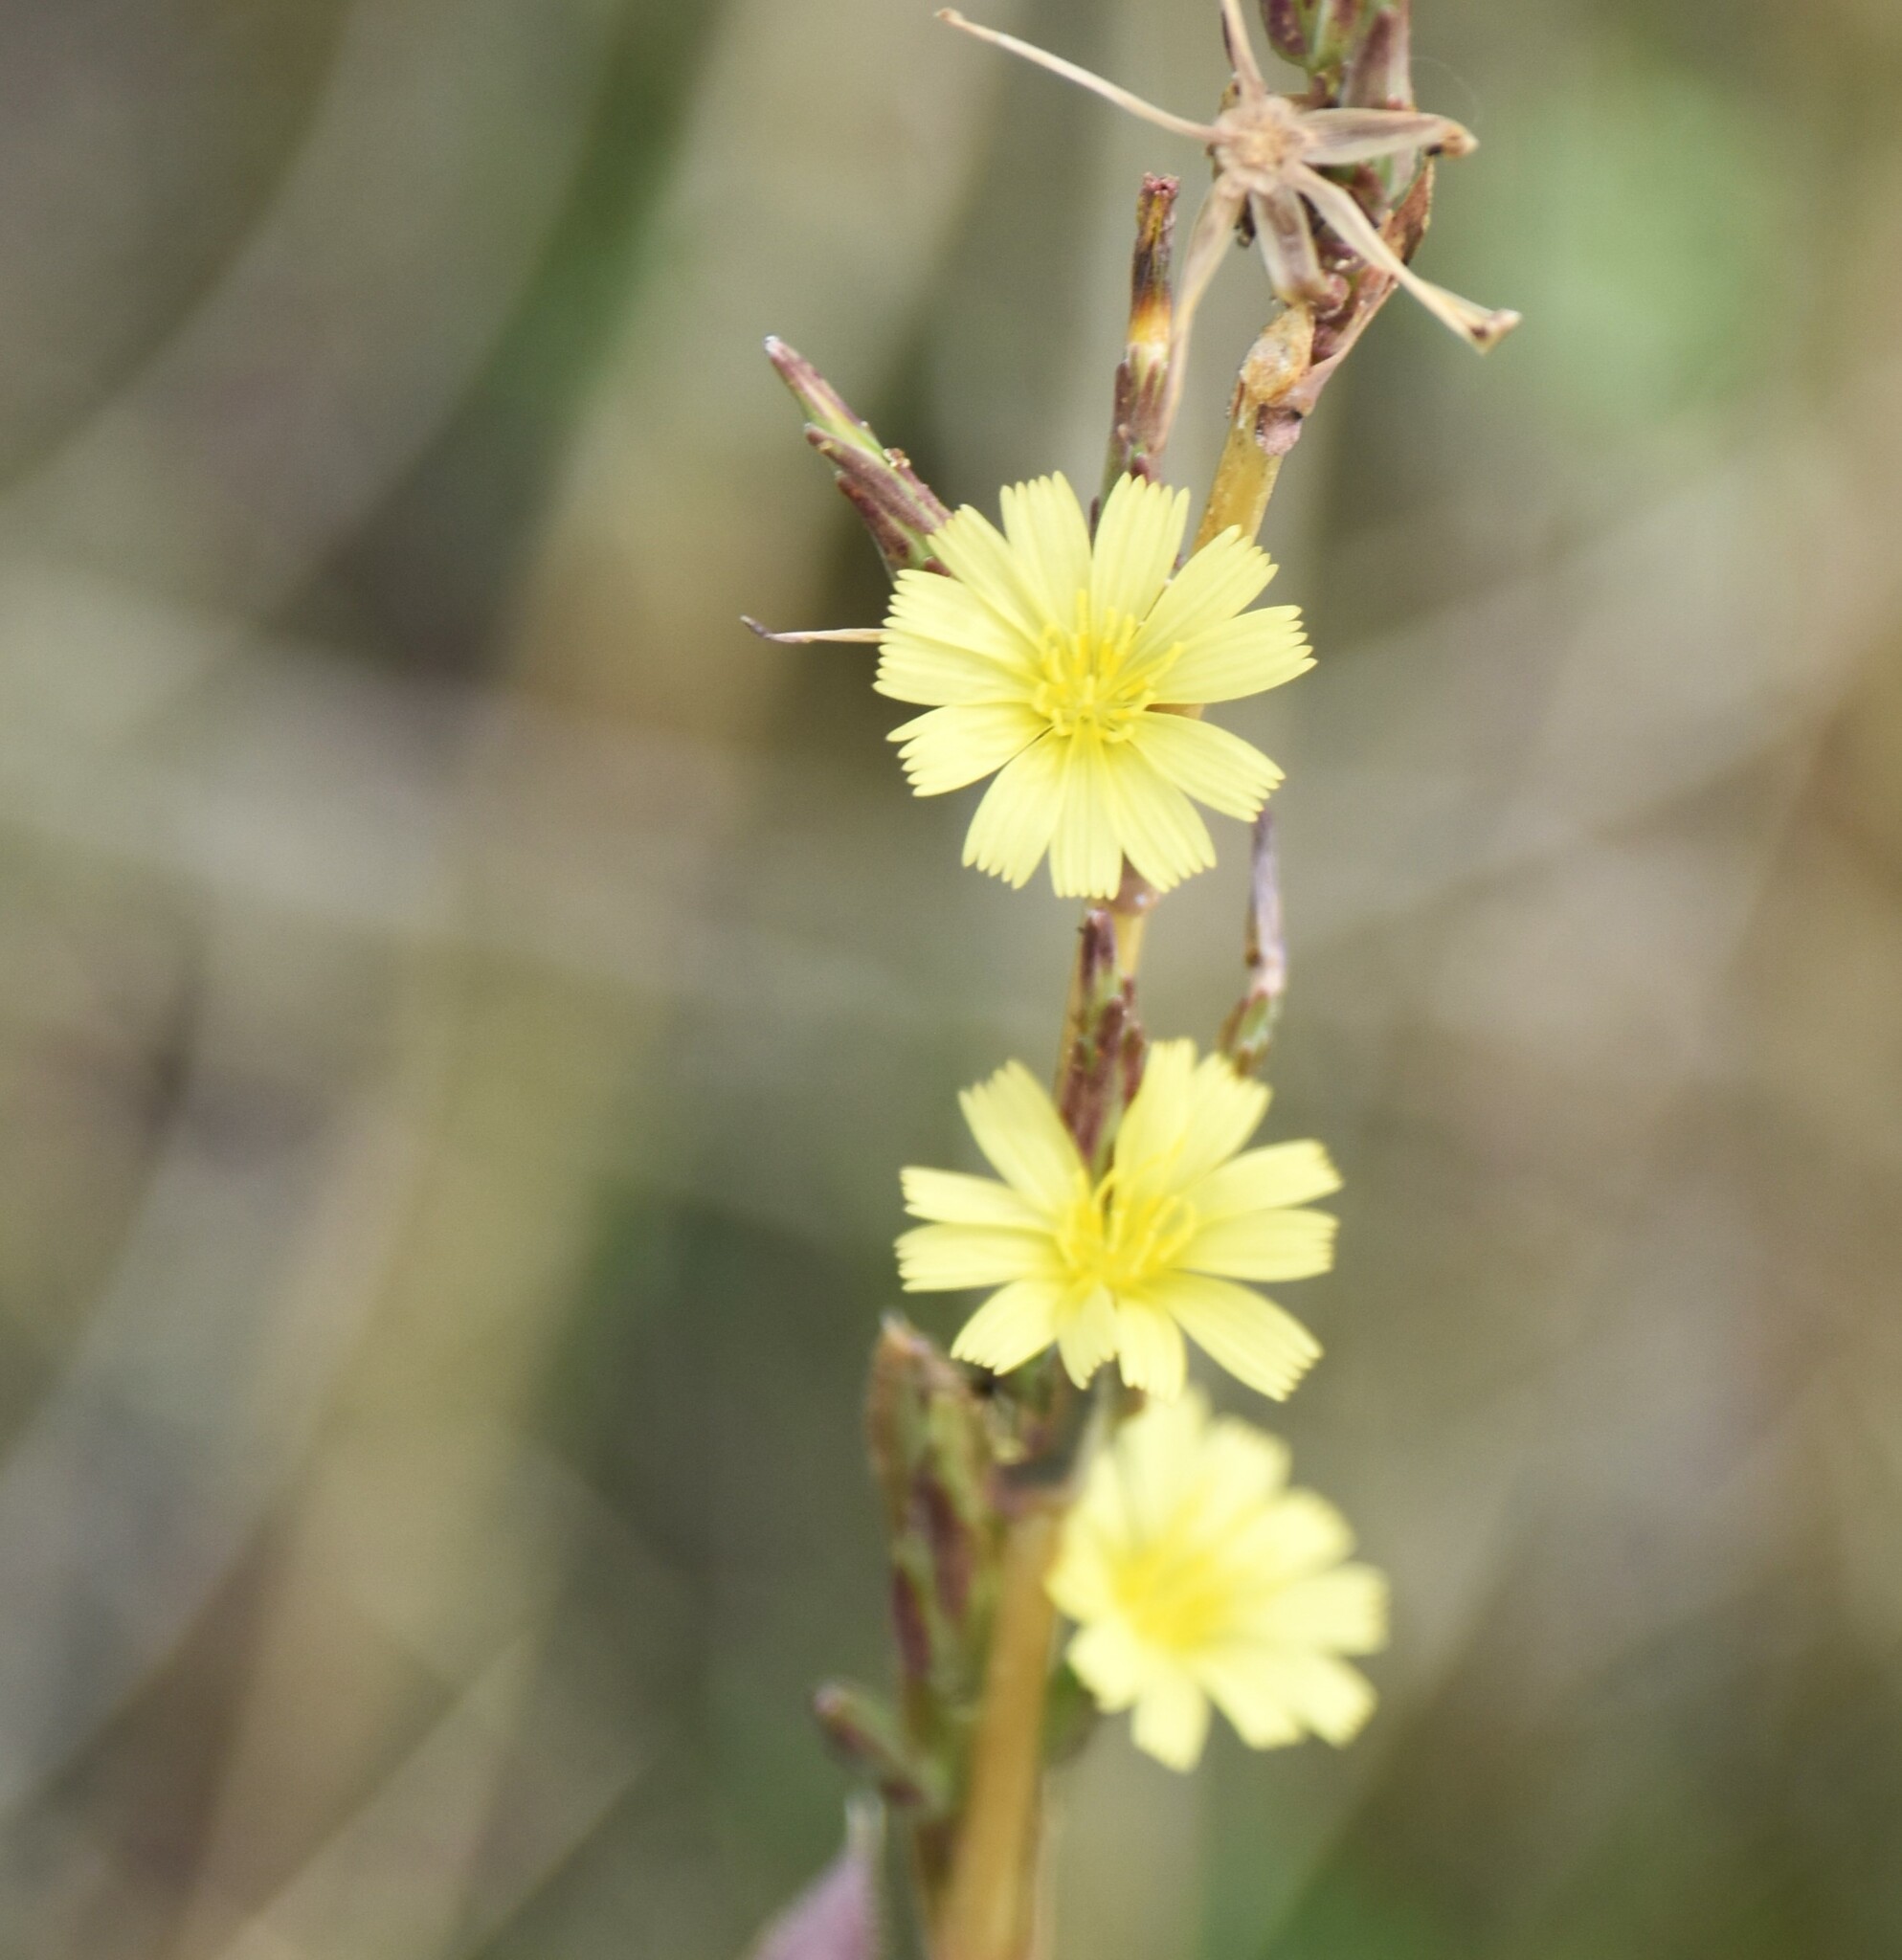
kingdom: Plantae
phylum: Tracheophyta
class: Magnoliopsida
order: Asterales
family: Asteraceae
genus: Lactuca
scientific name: Lactuca serriola
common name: Prickly lettuce
